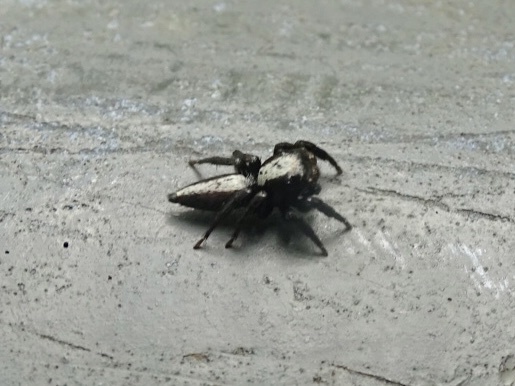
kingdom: Animalia
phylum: Arthropoda
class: Arachnida
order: Araneae
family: Salticidae
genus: Thyene
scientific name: Thyene orientalis
